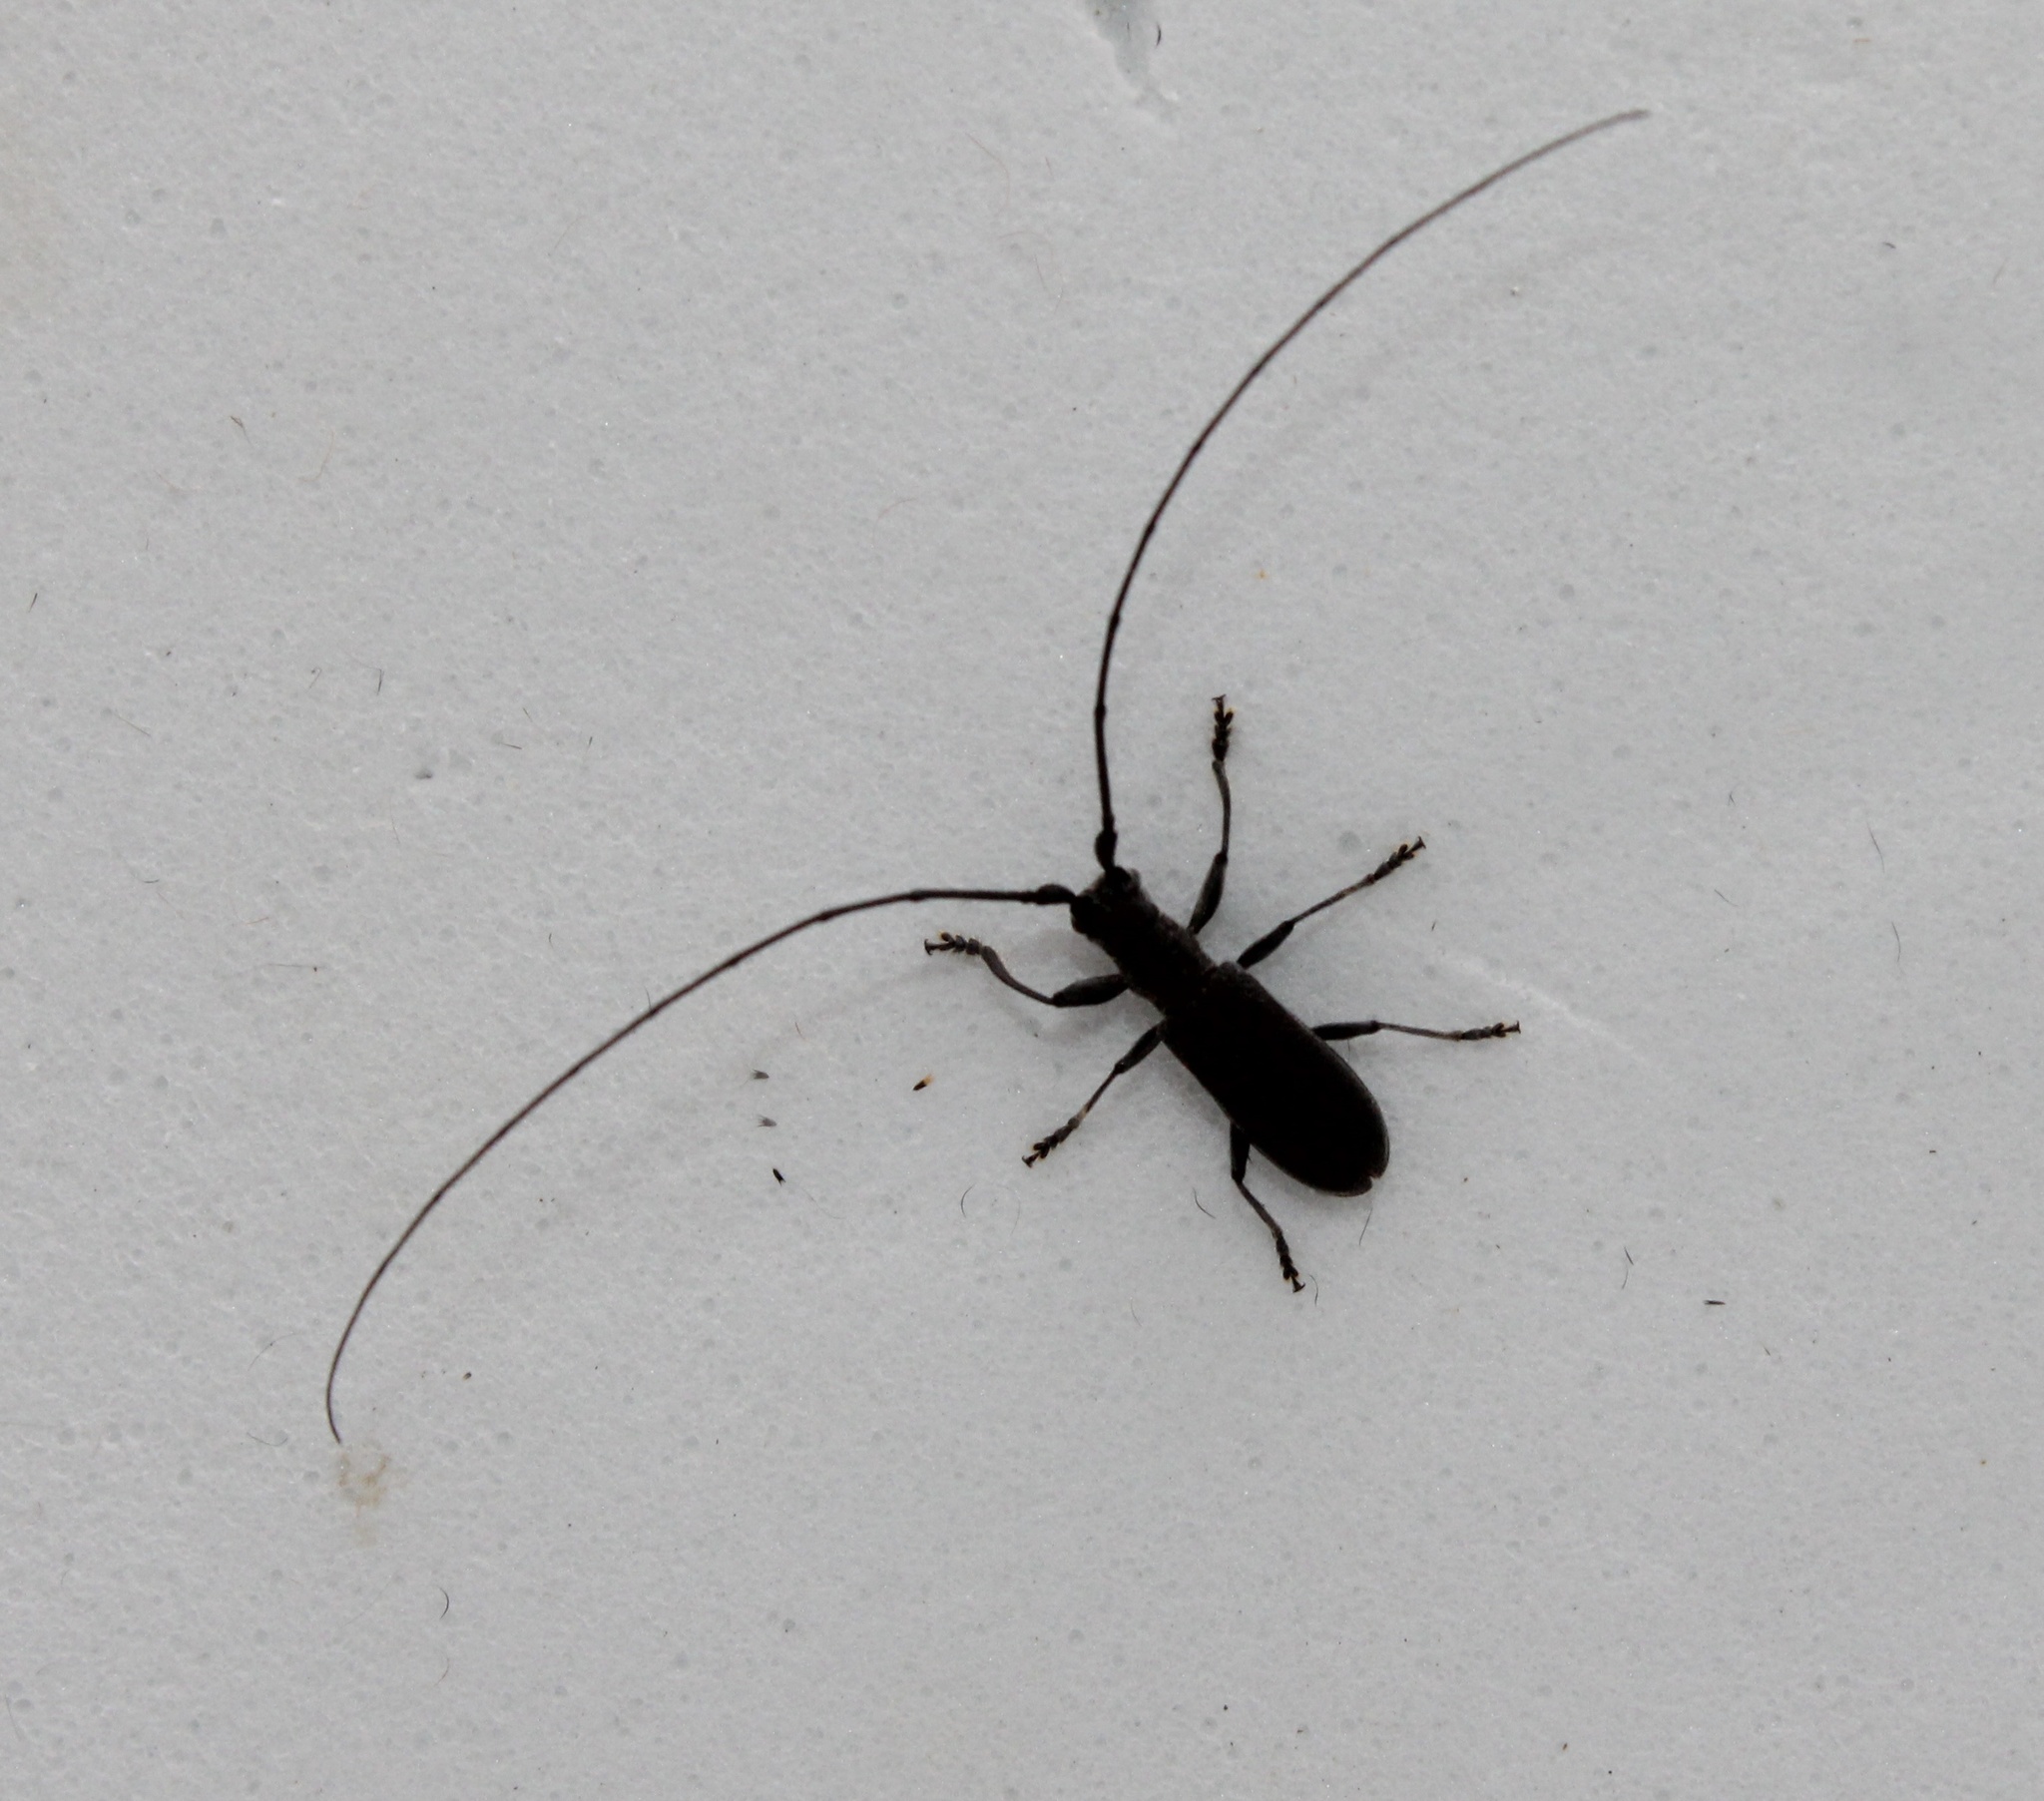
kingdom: Animalia
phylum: Arthropoda
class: Insecta
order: Coleoptera
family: Cerambycidae
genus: Dorcaschema
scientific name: Dorcaschema nigrum
